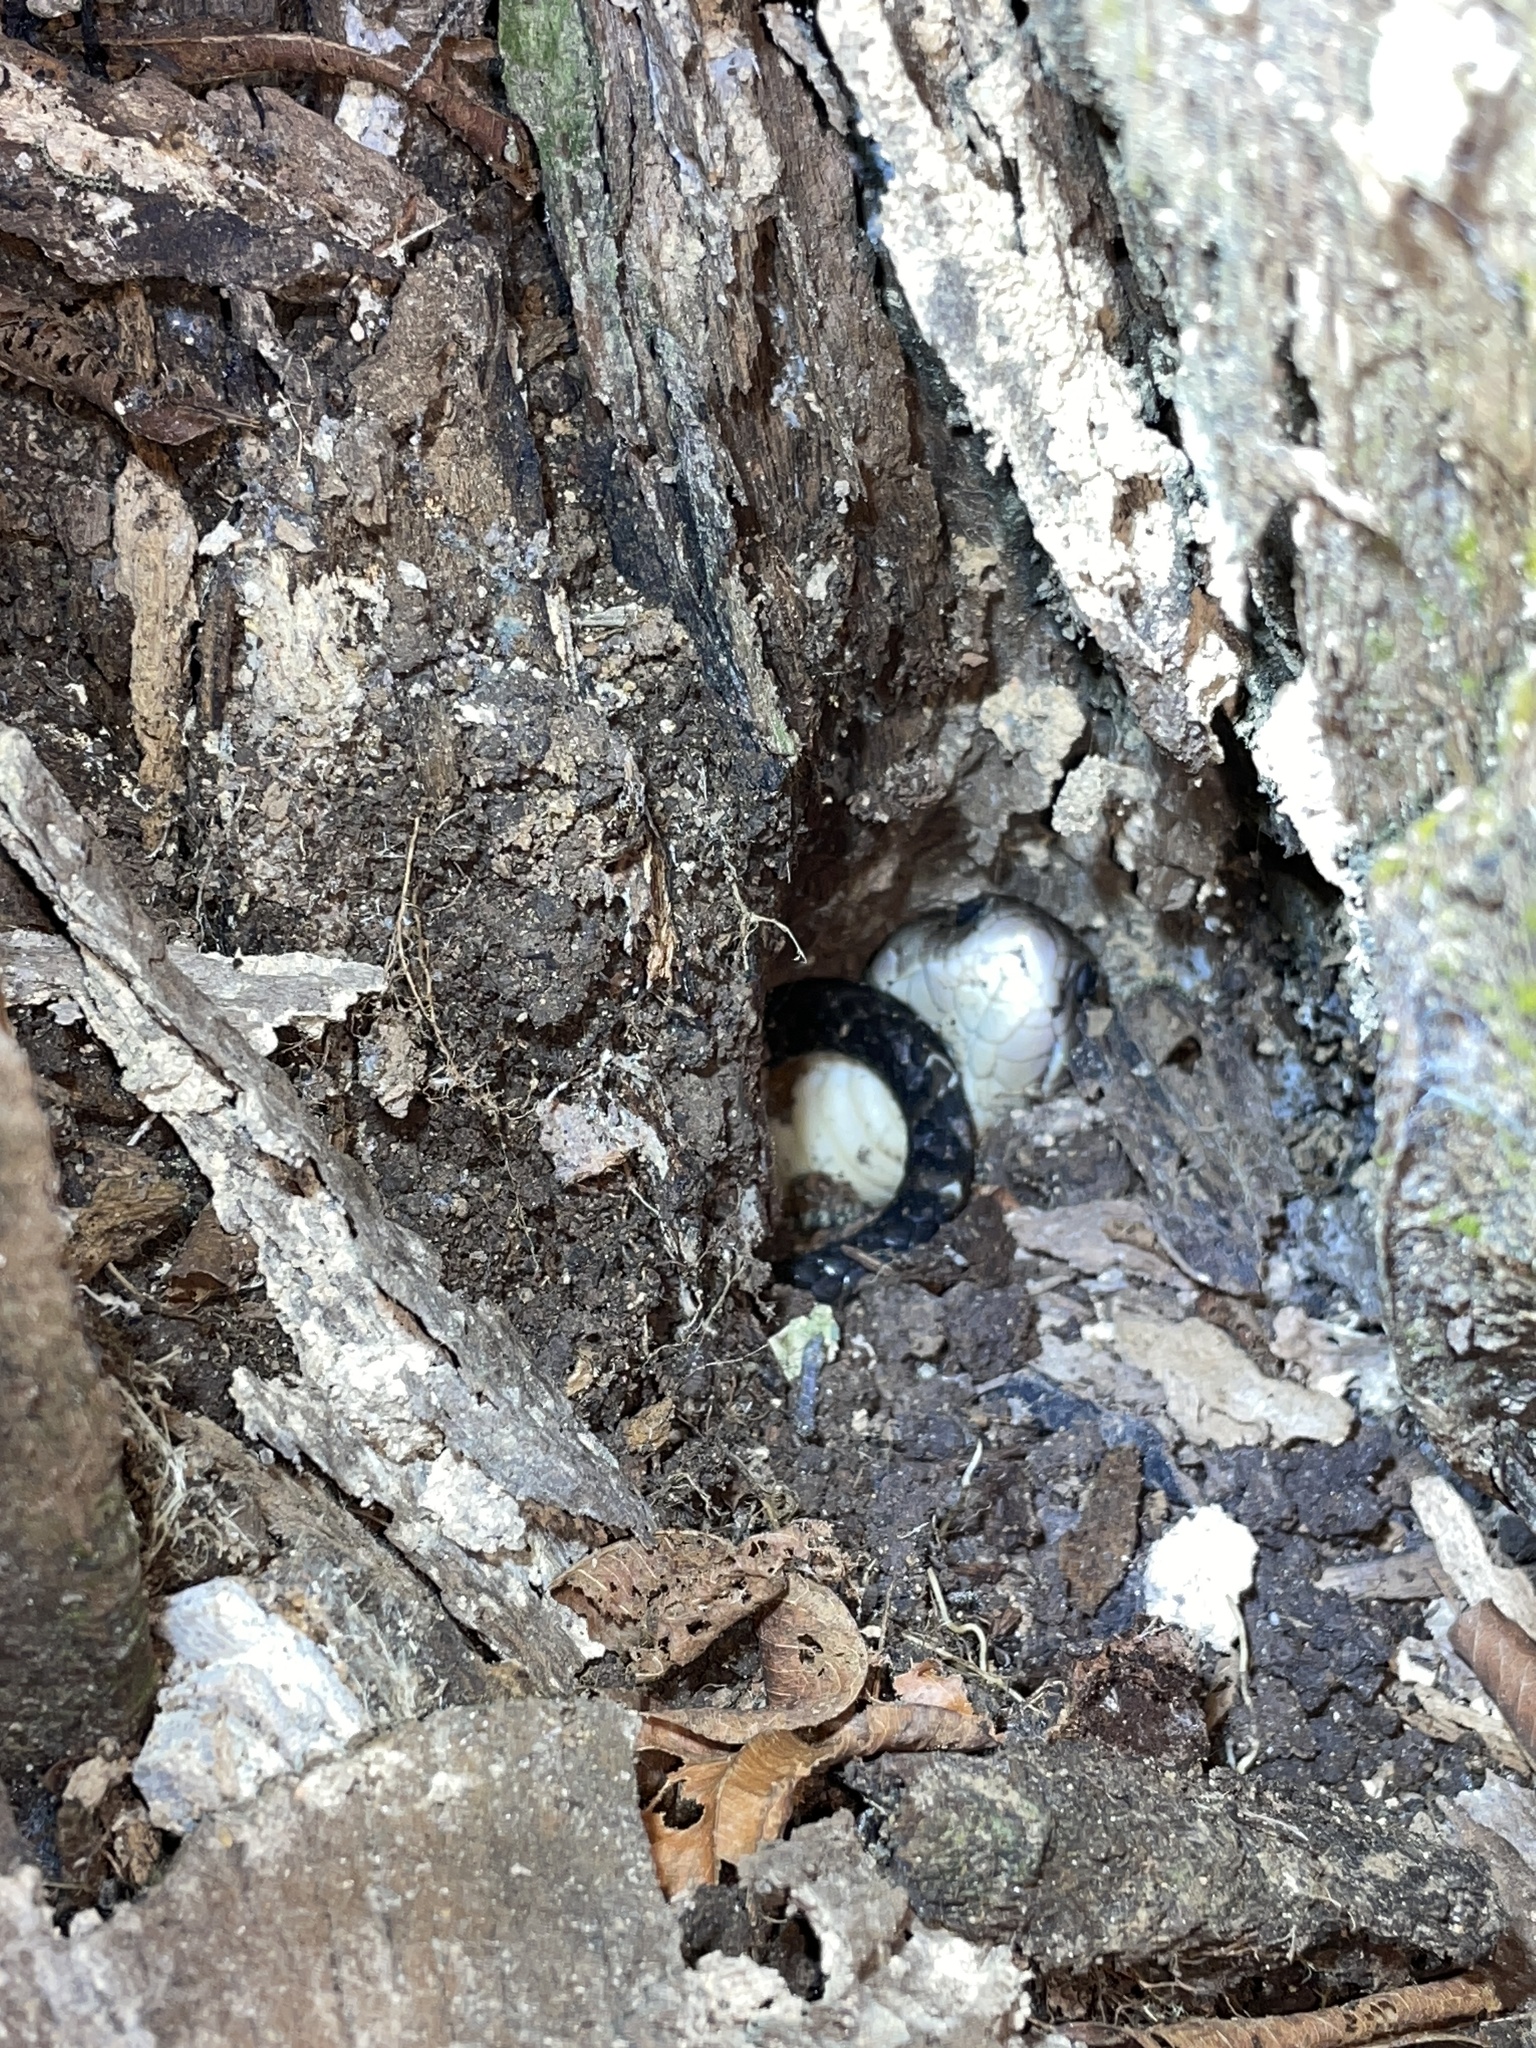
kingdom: Animalia
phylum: Chordata
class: Squamata
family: Elapidae
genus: Naja
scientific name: Naja atra
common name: Chinese cobra
